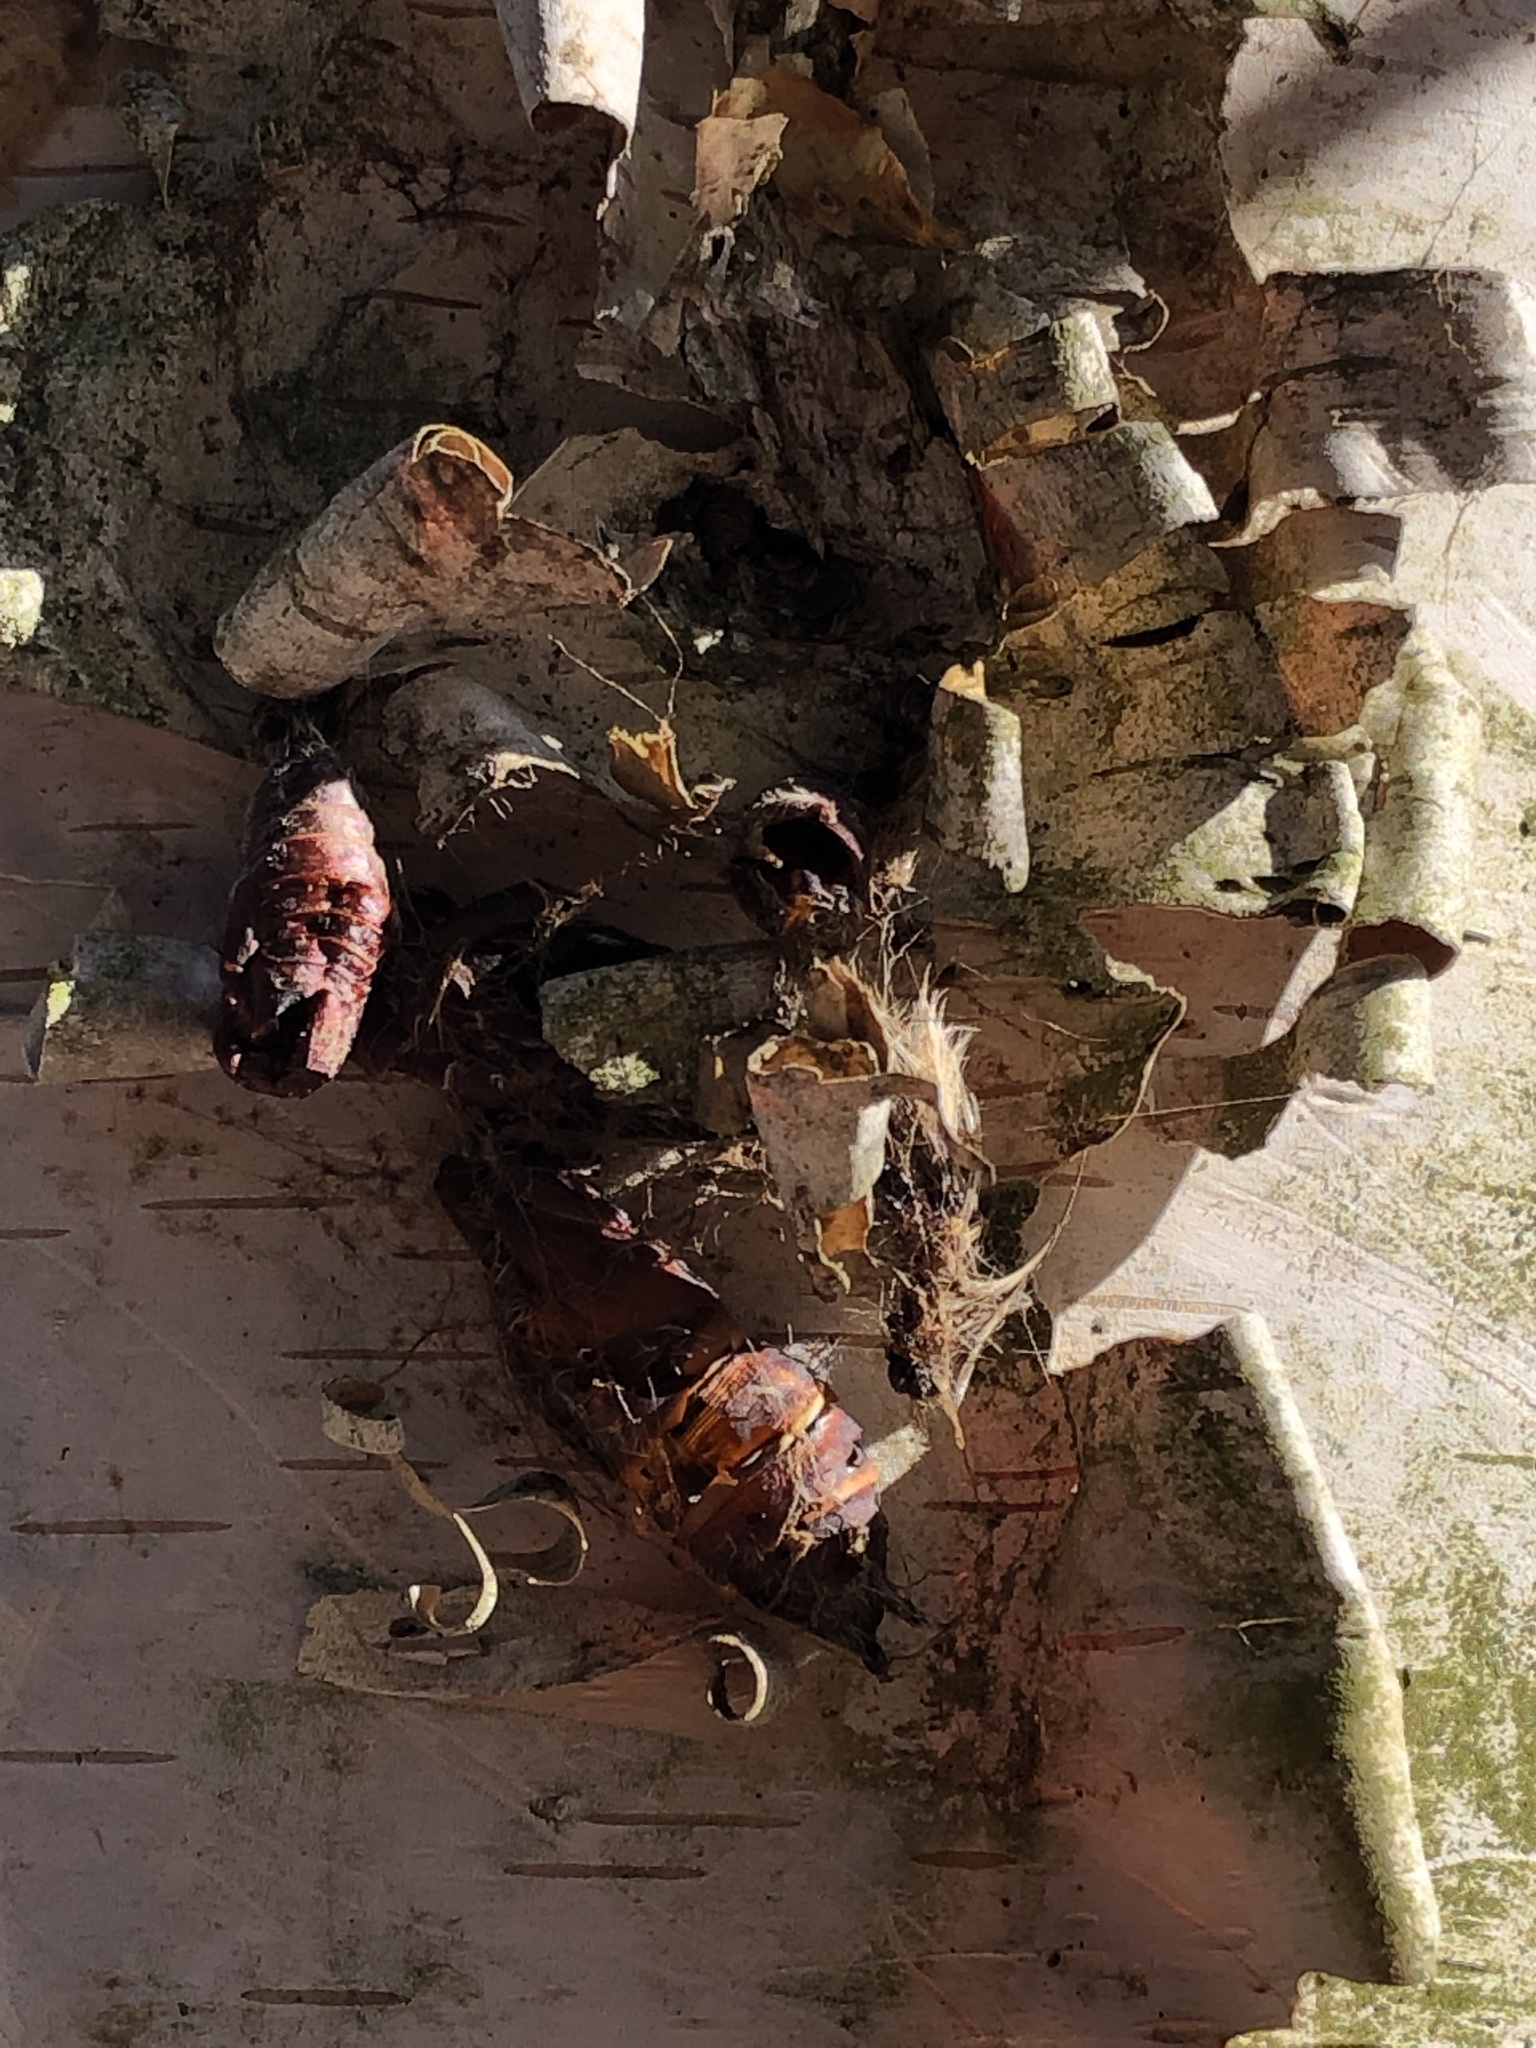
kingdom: Animalia
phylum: Arthropoda
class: Insecta
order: Lepidoptera
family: Erebidae
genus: Lymantria
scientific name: Lymantria dispar
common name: Gypsy moth
